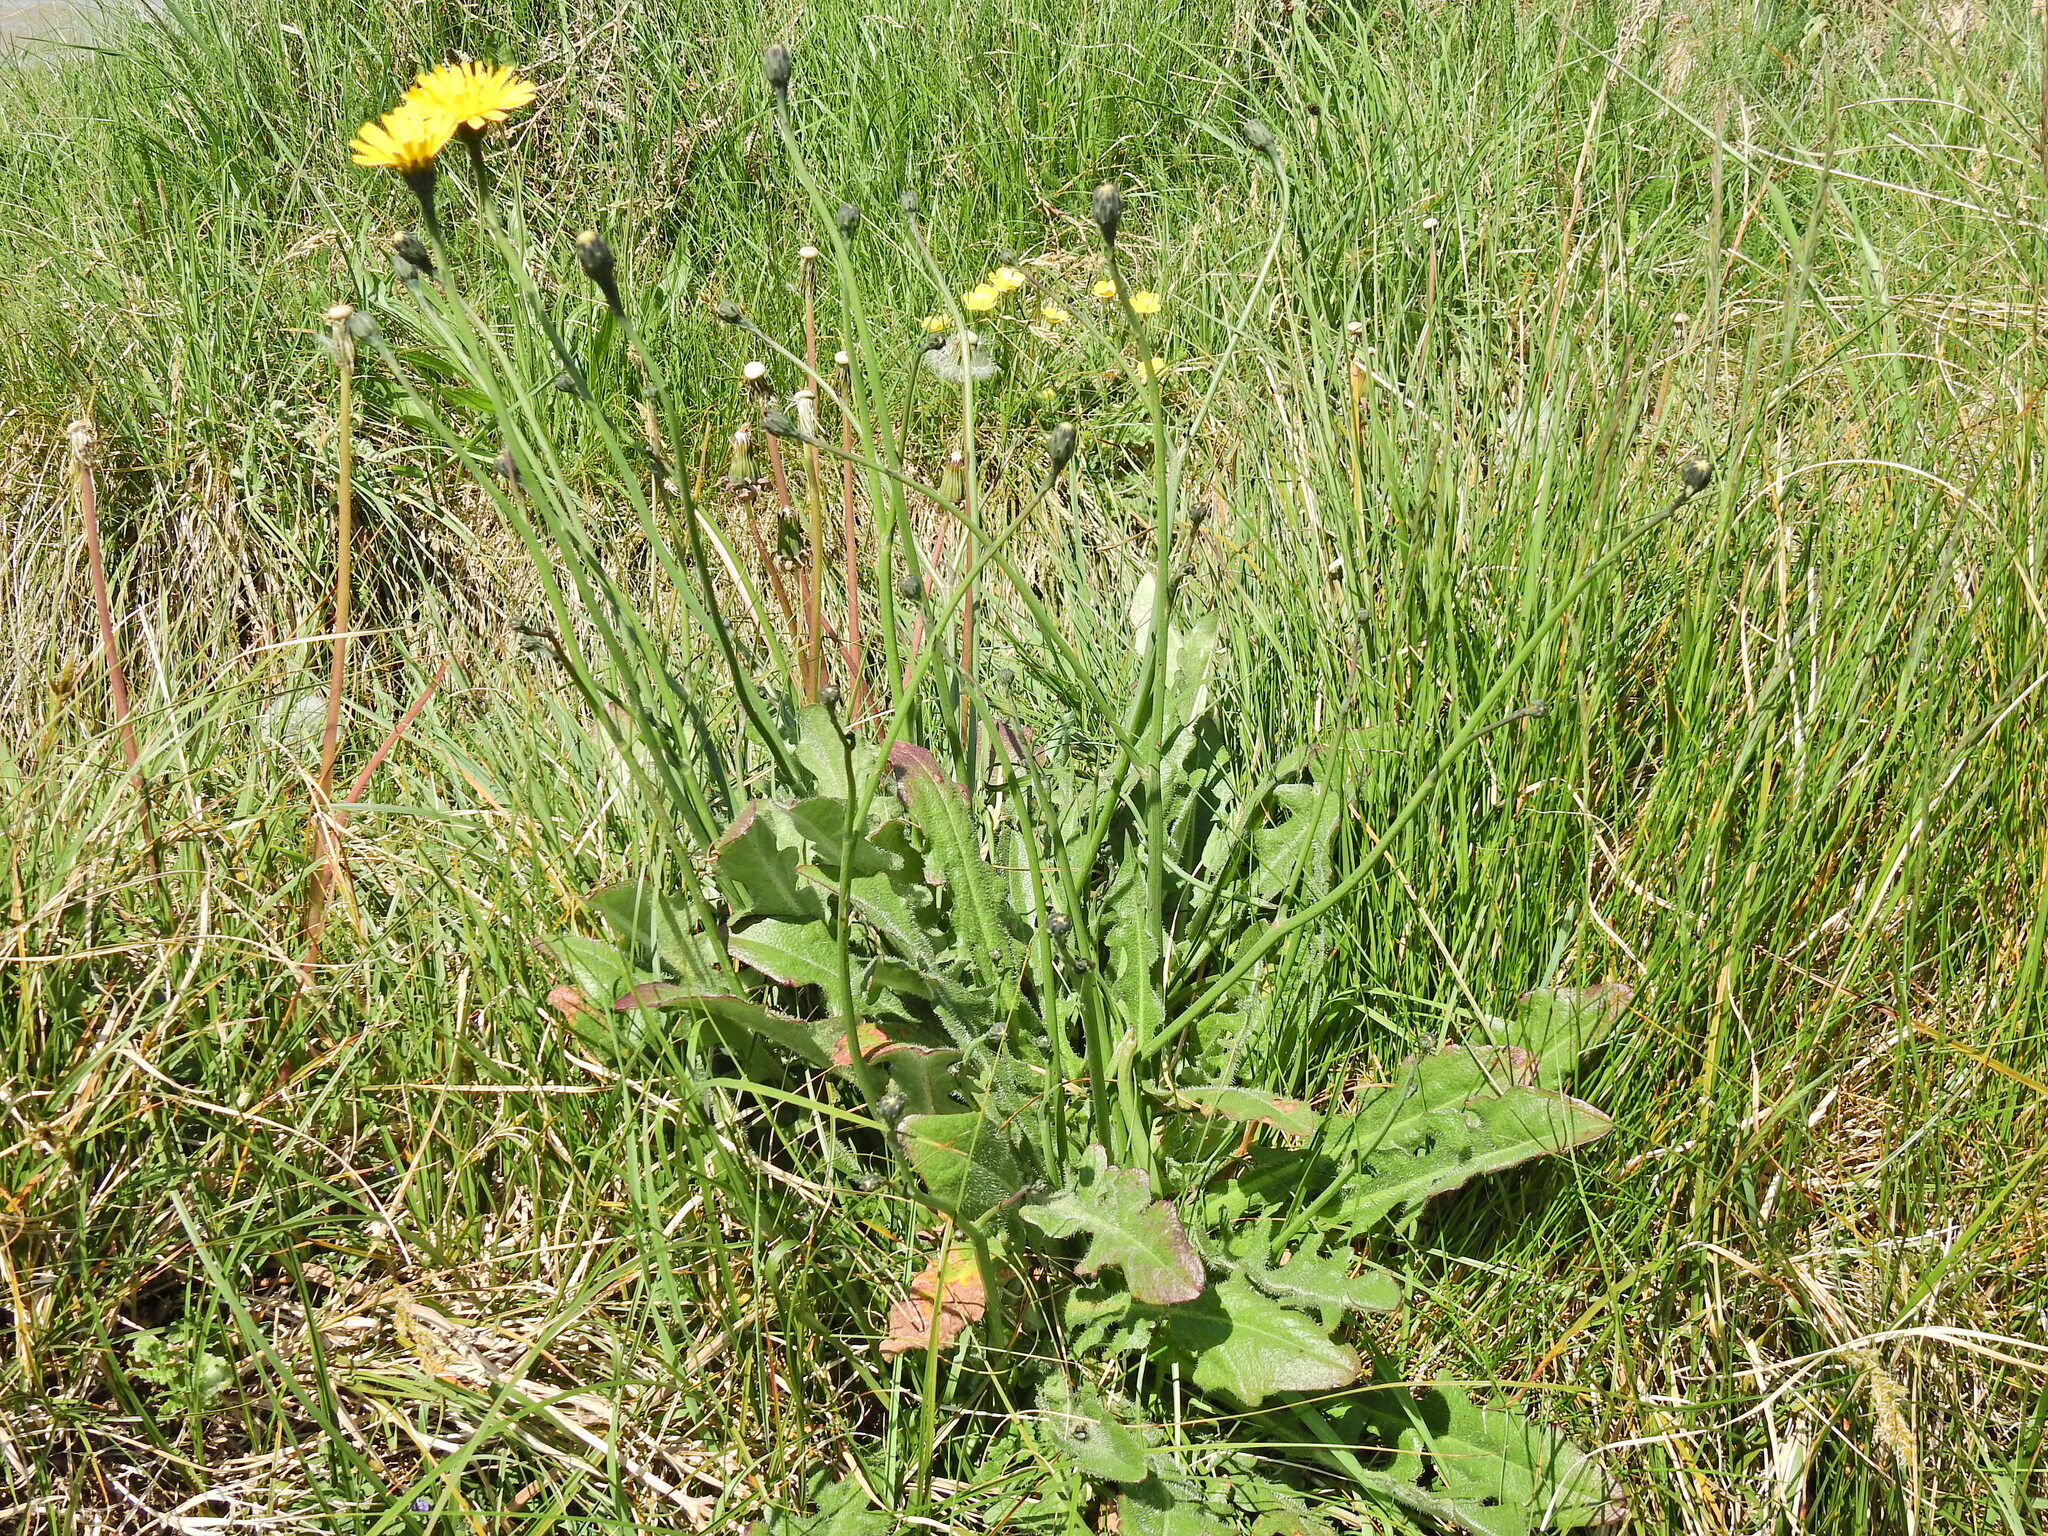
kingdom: Plantae
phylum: Tracheophyta
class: Magnoliopsida
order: Asterales
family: Asteraceae
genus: Hypochaeris
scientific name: Hypochaeris radicata
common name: Flatweed
